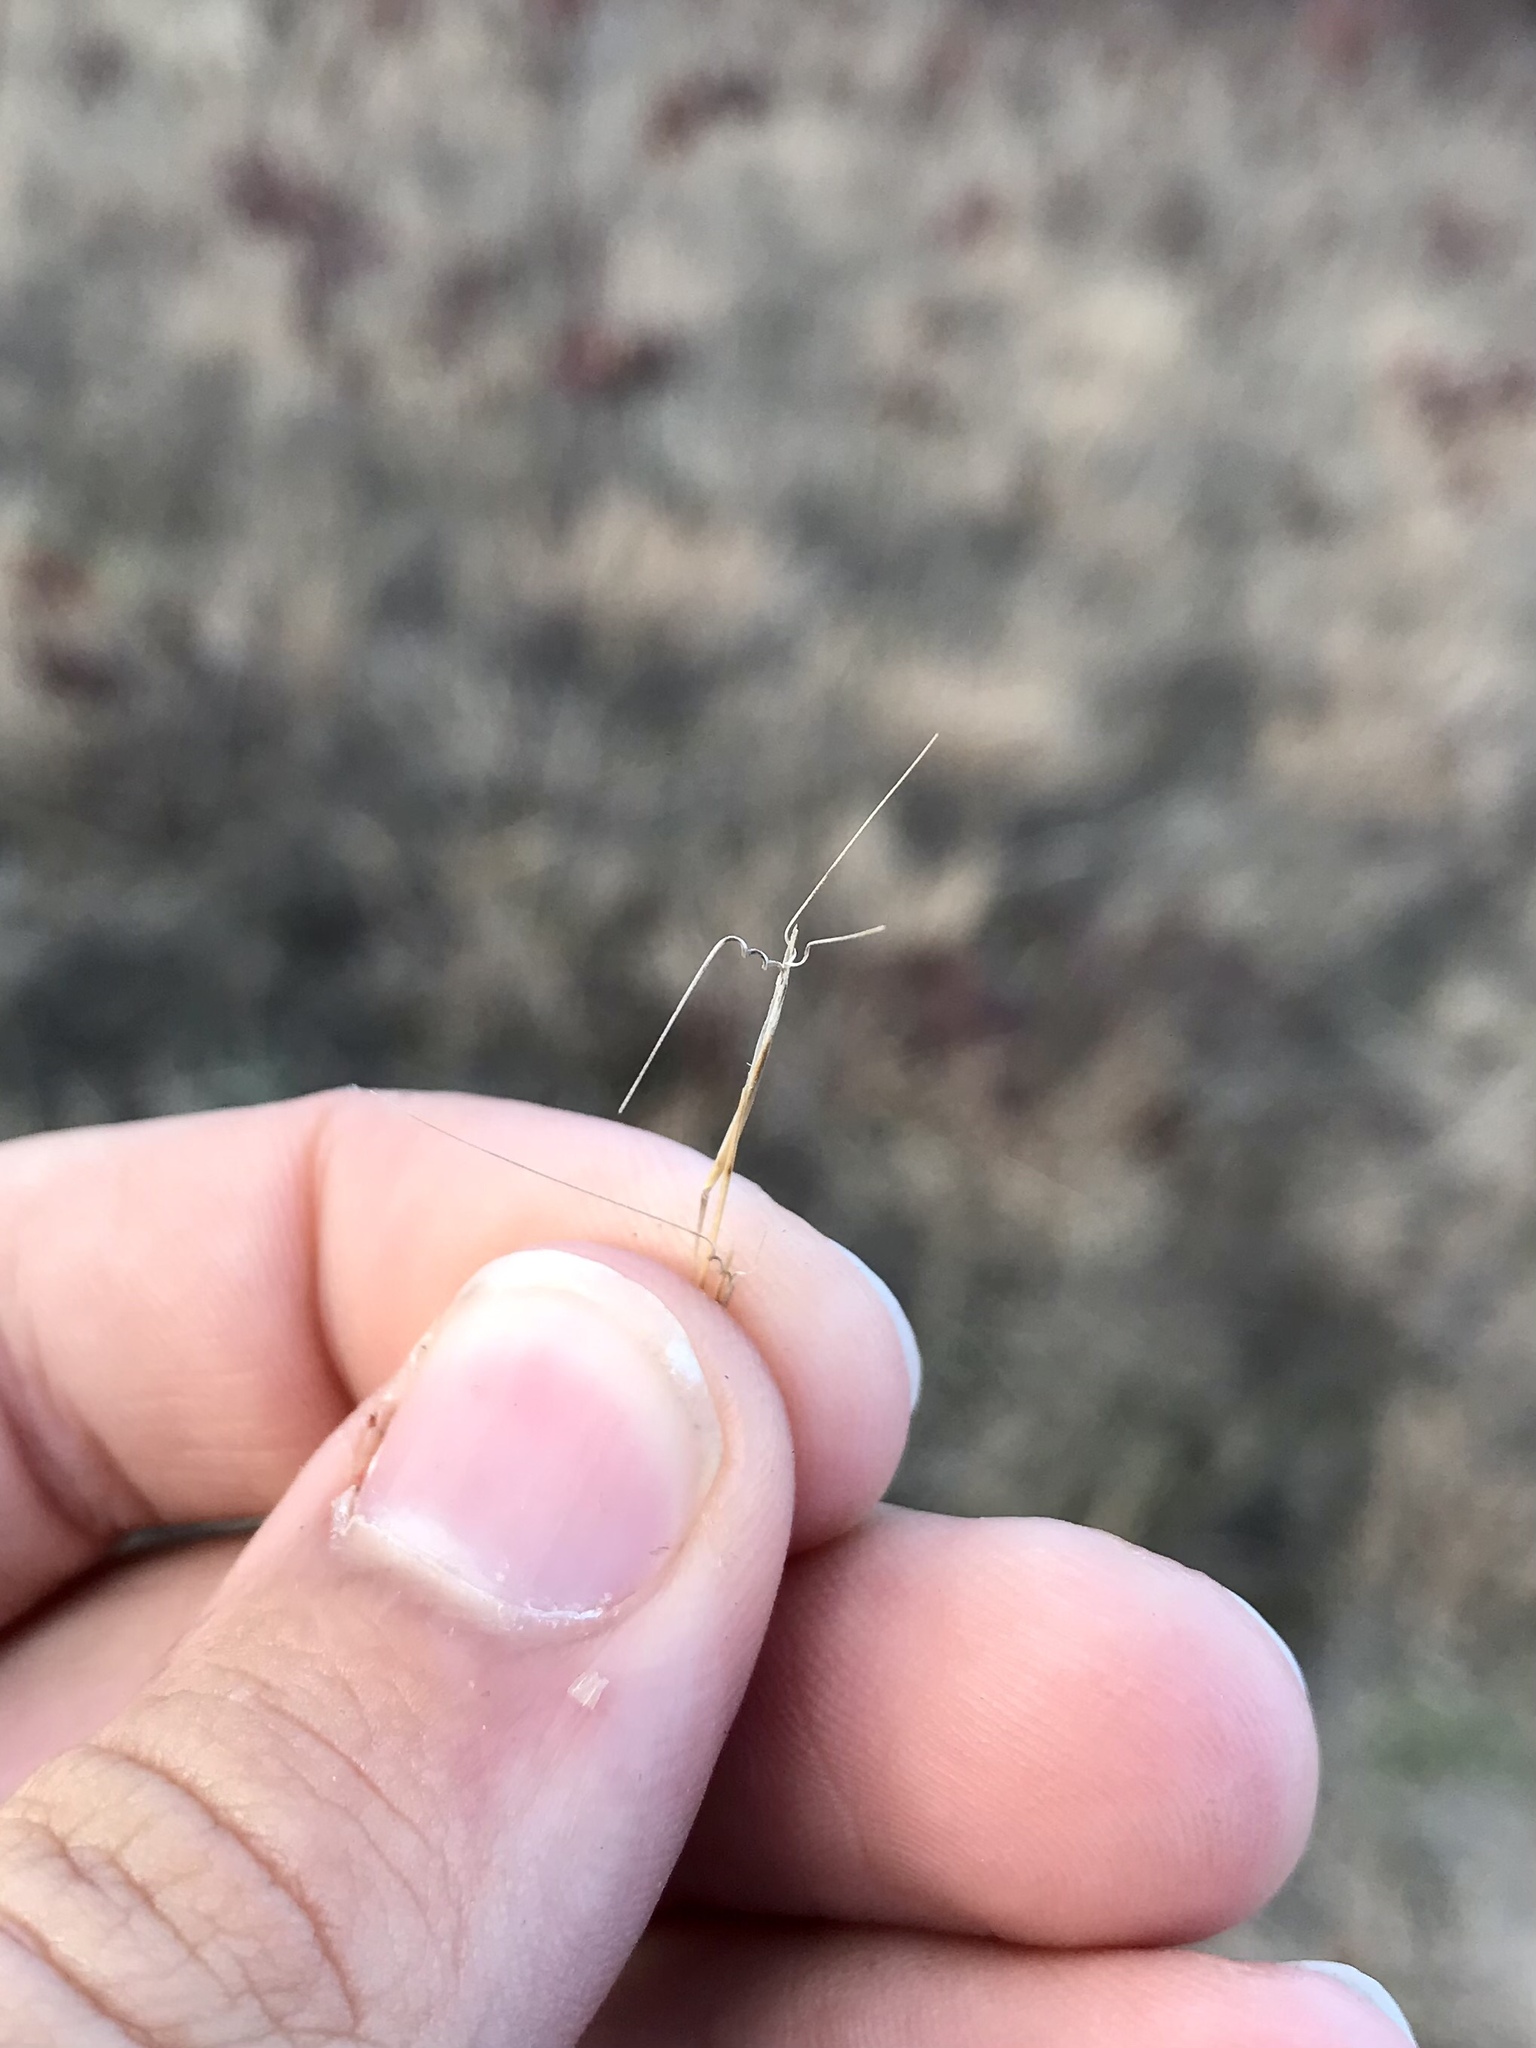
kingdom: Plantae
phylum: Tracheophyta
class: Liliopsida
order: Poales
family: Poaceae
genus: Aristida
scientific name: Aristida basiramea
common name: Forked three-awned grass
